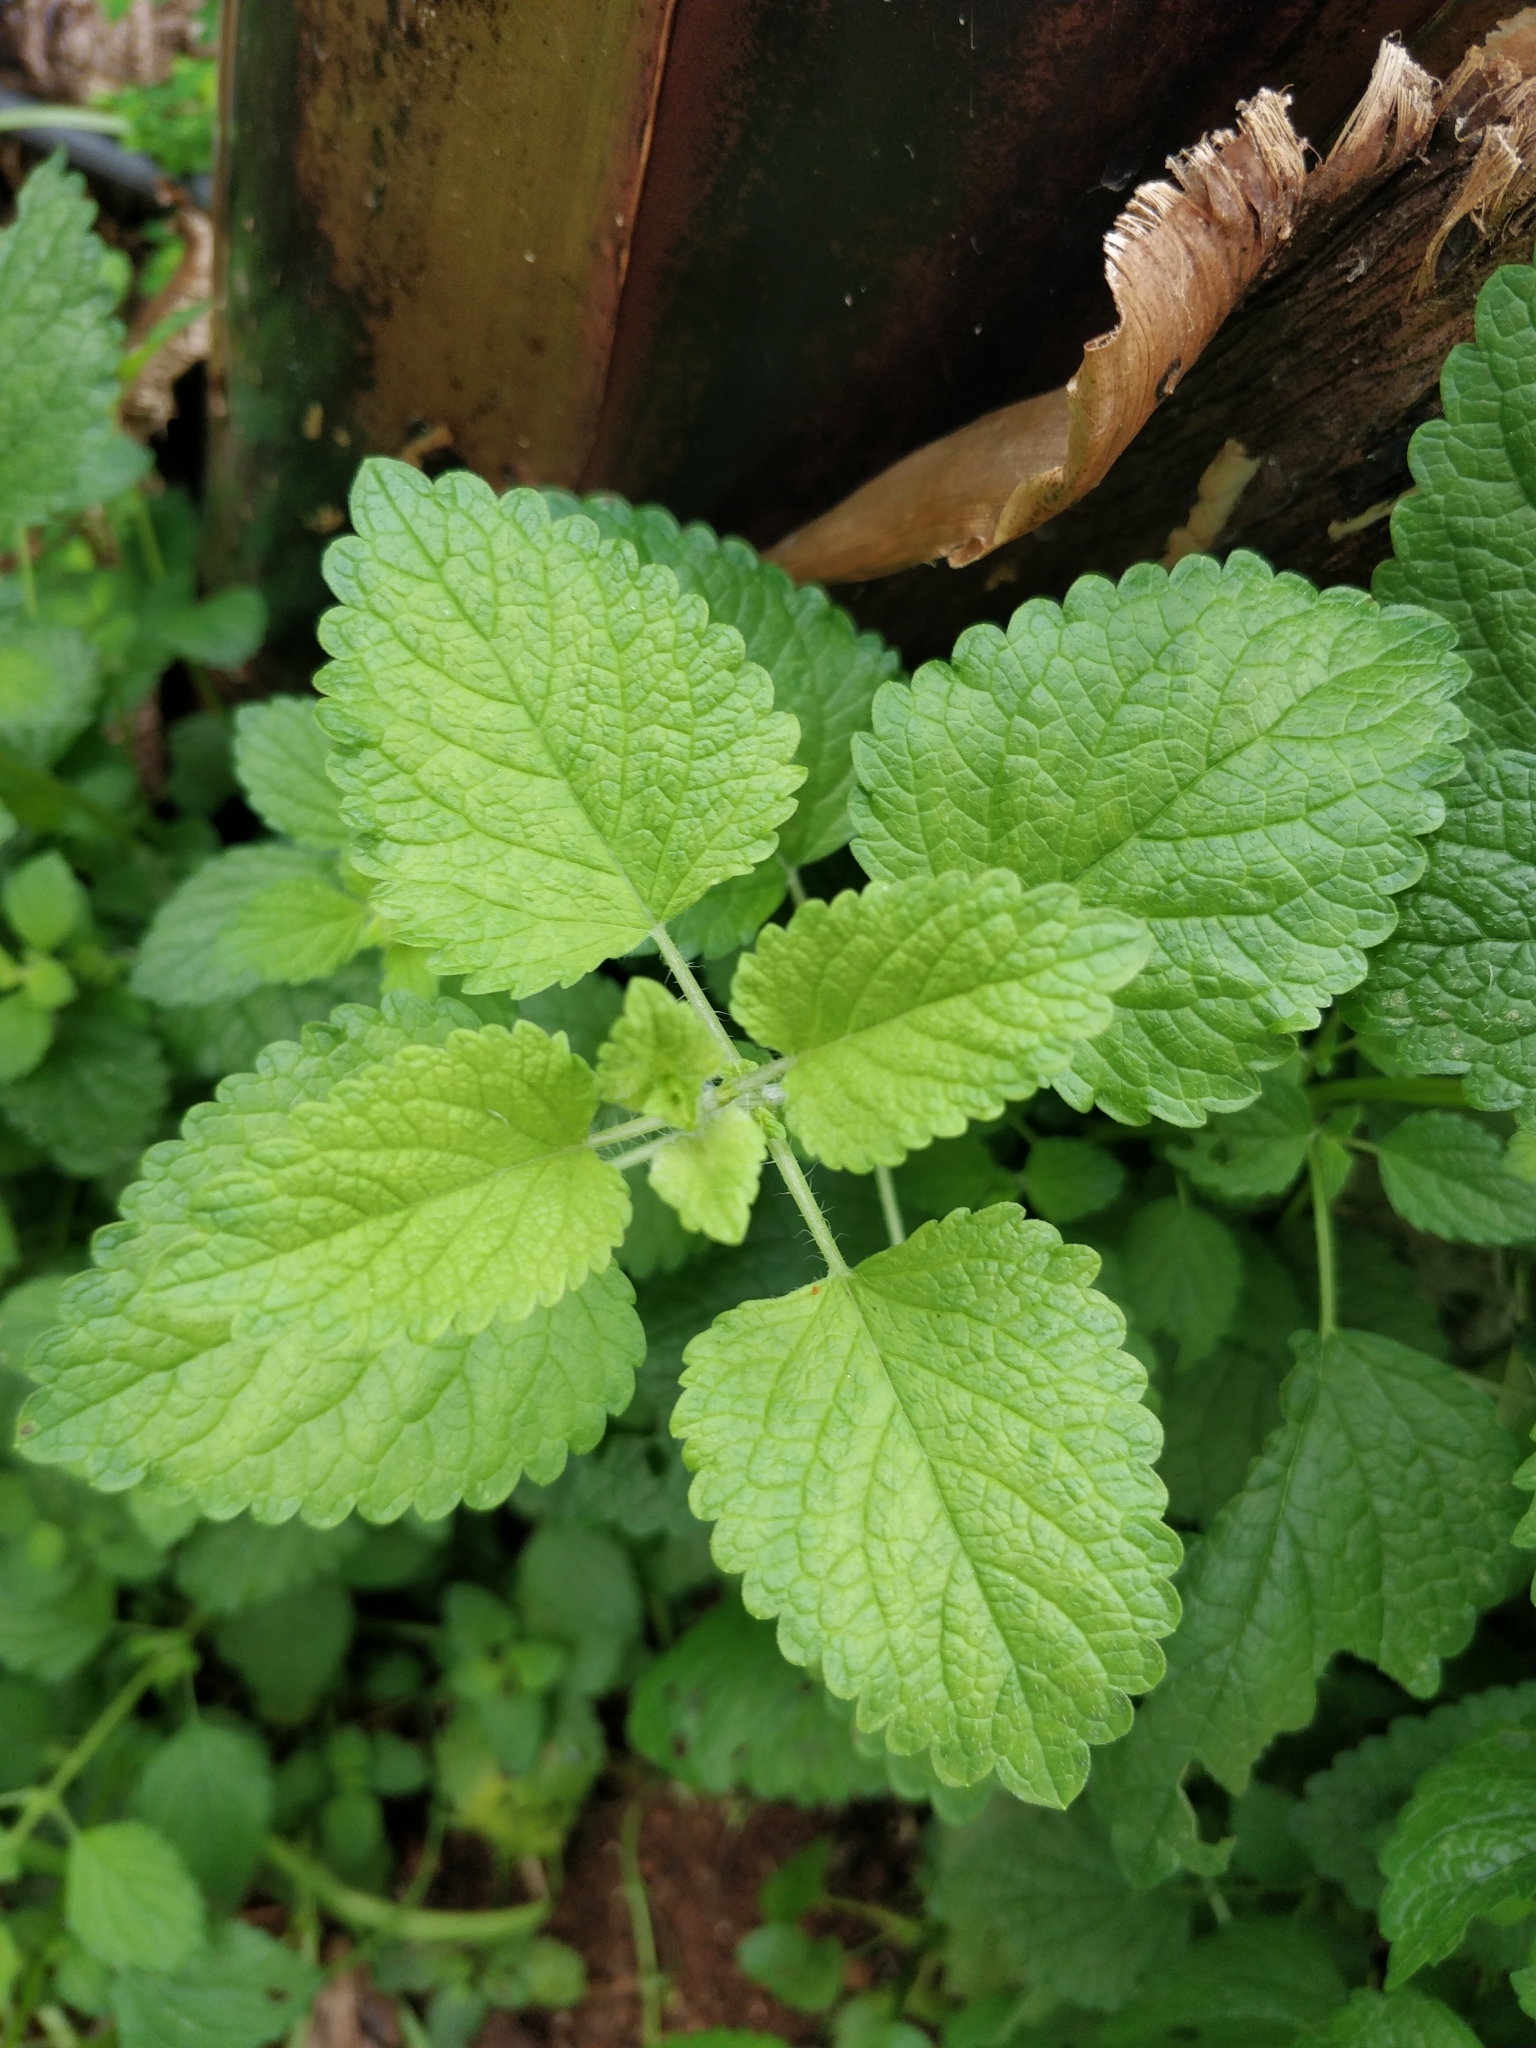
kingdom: Plantae
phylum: Tracheophyta
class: Magnoliopsida
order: Lamiales
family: Lamiaceae
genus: Melissa
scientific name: Melissa officinalis
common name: Balm
